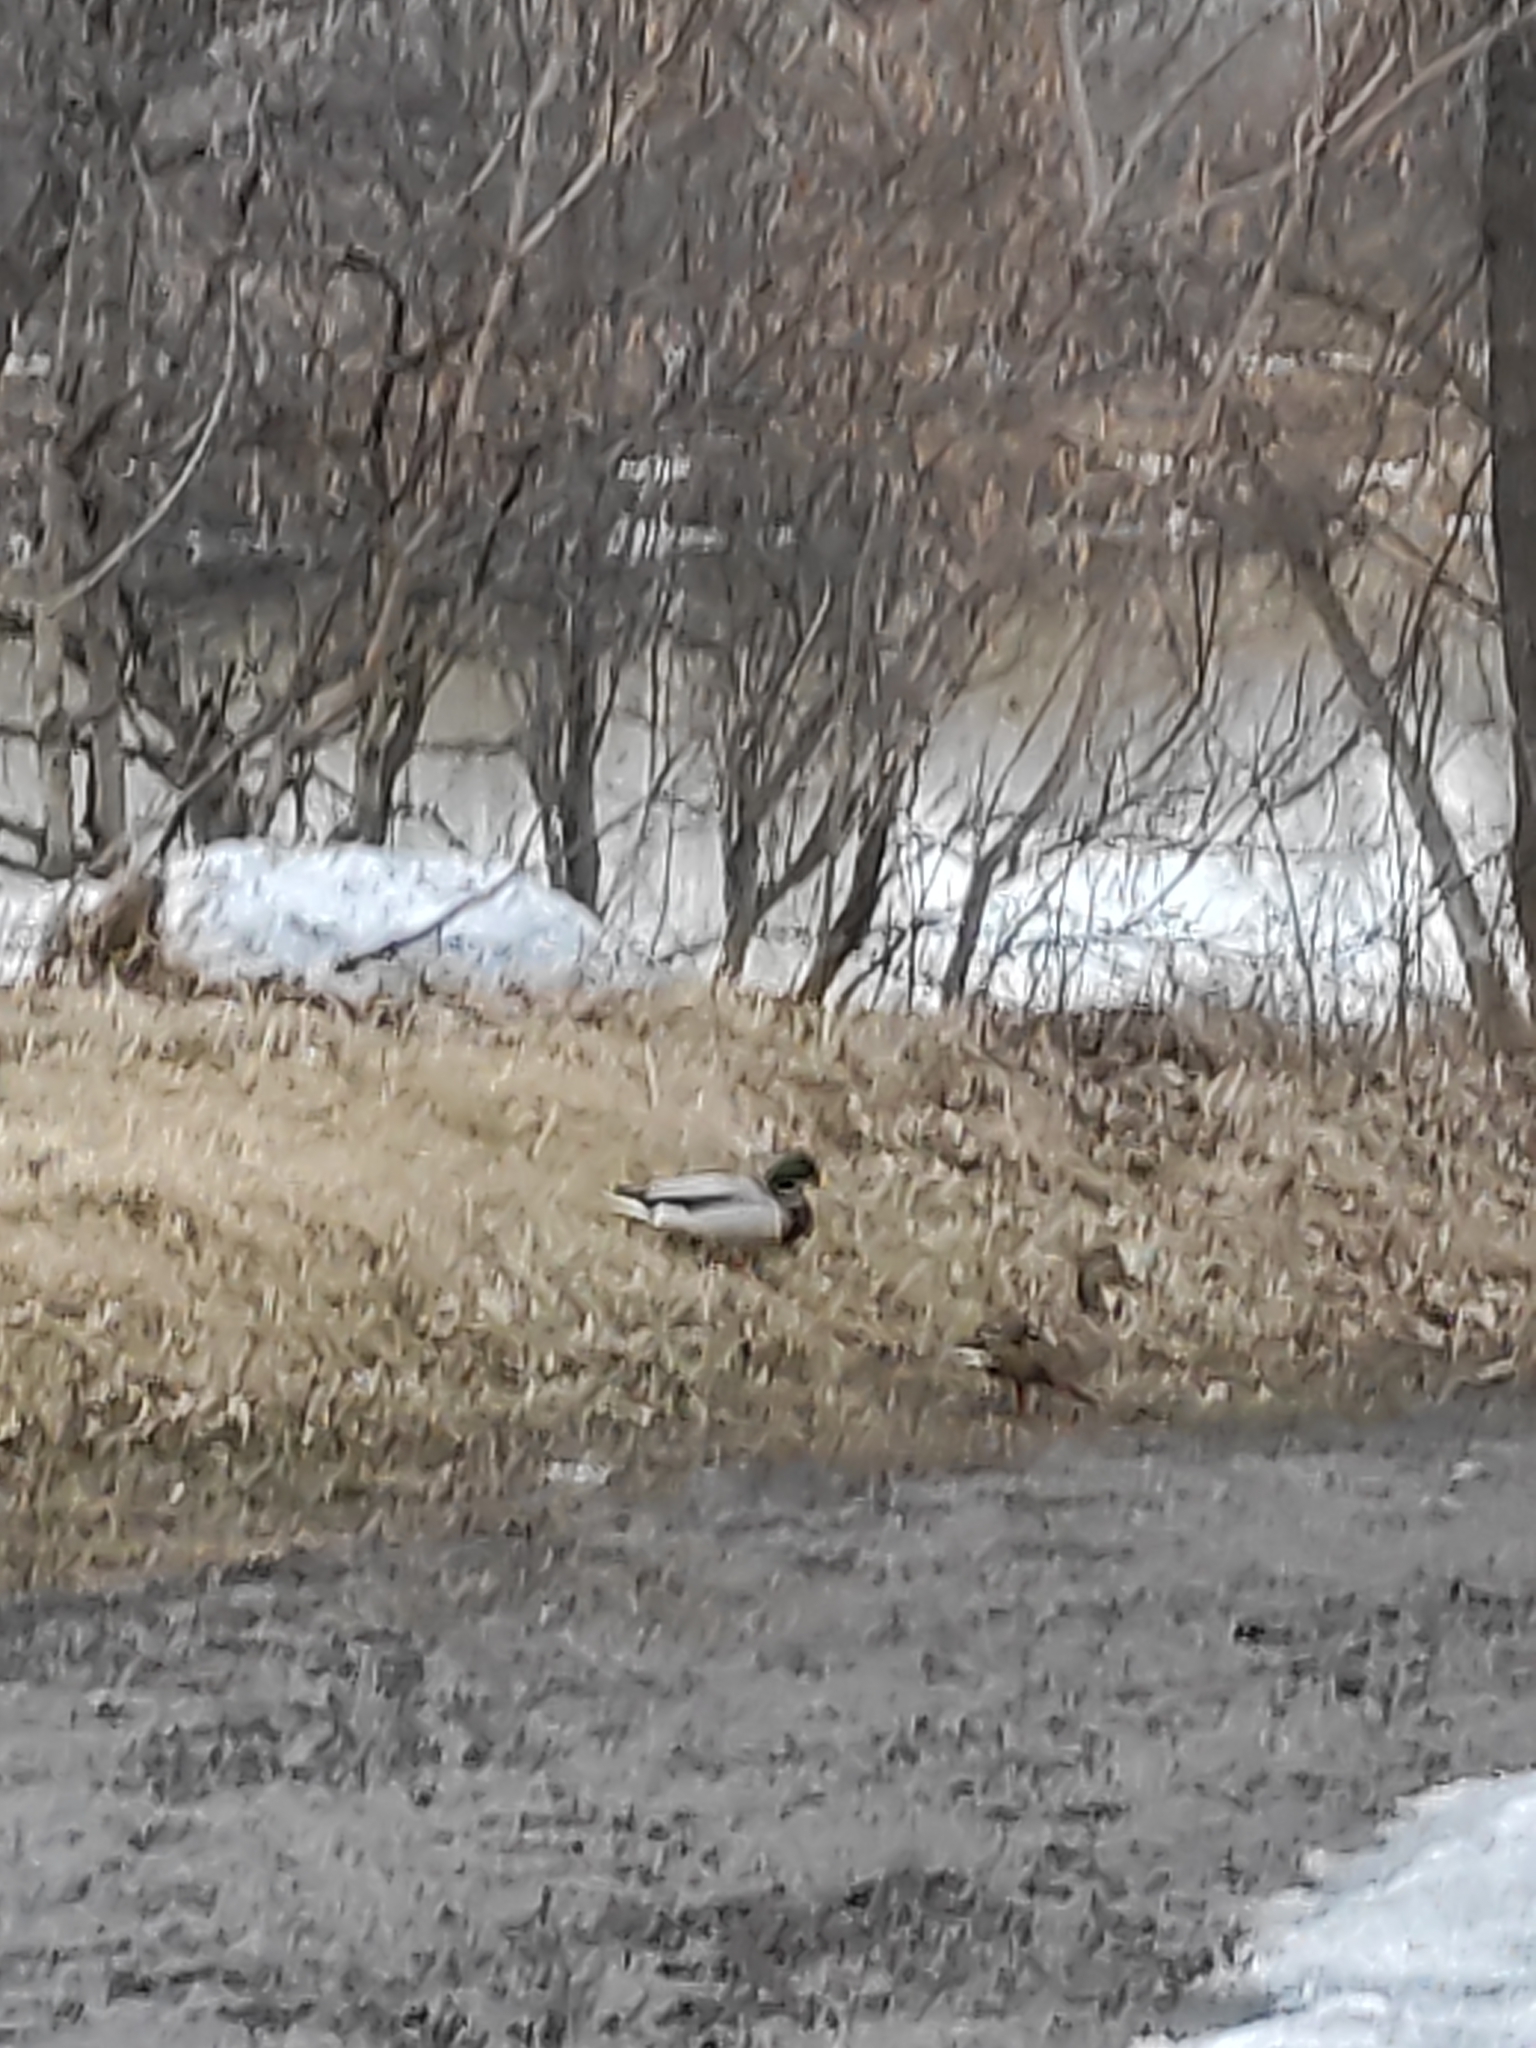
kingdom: Animalia
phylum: Chordata
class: Aves
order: Anseriformes
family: Anatidae
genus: Anas
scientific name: Anas platyrhynchos
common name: Mallard
